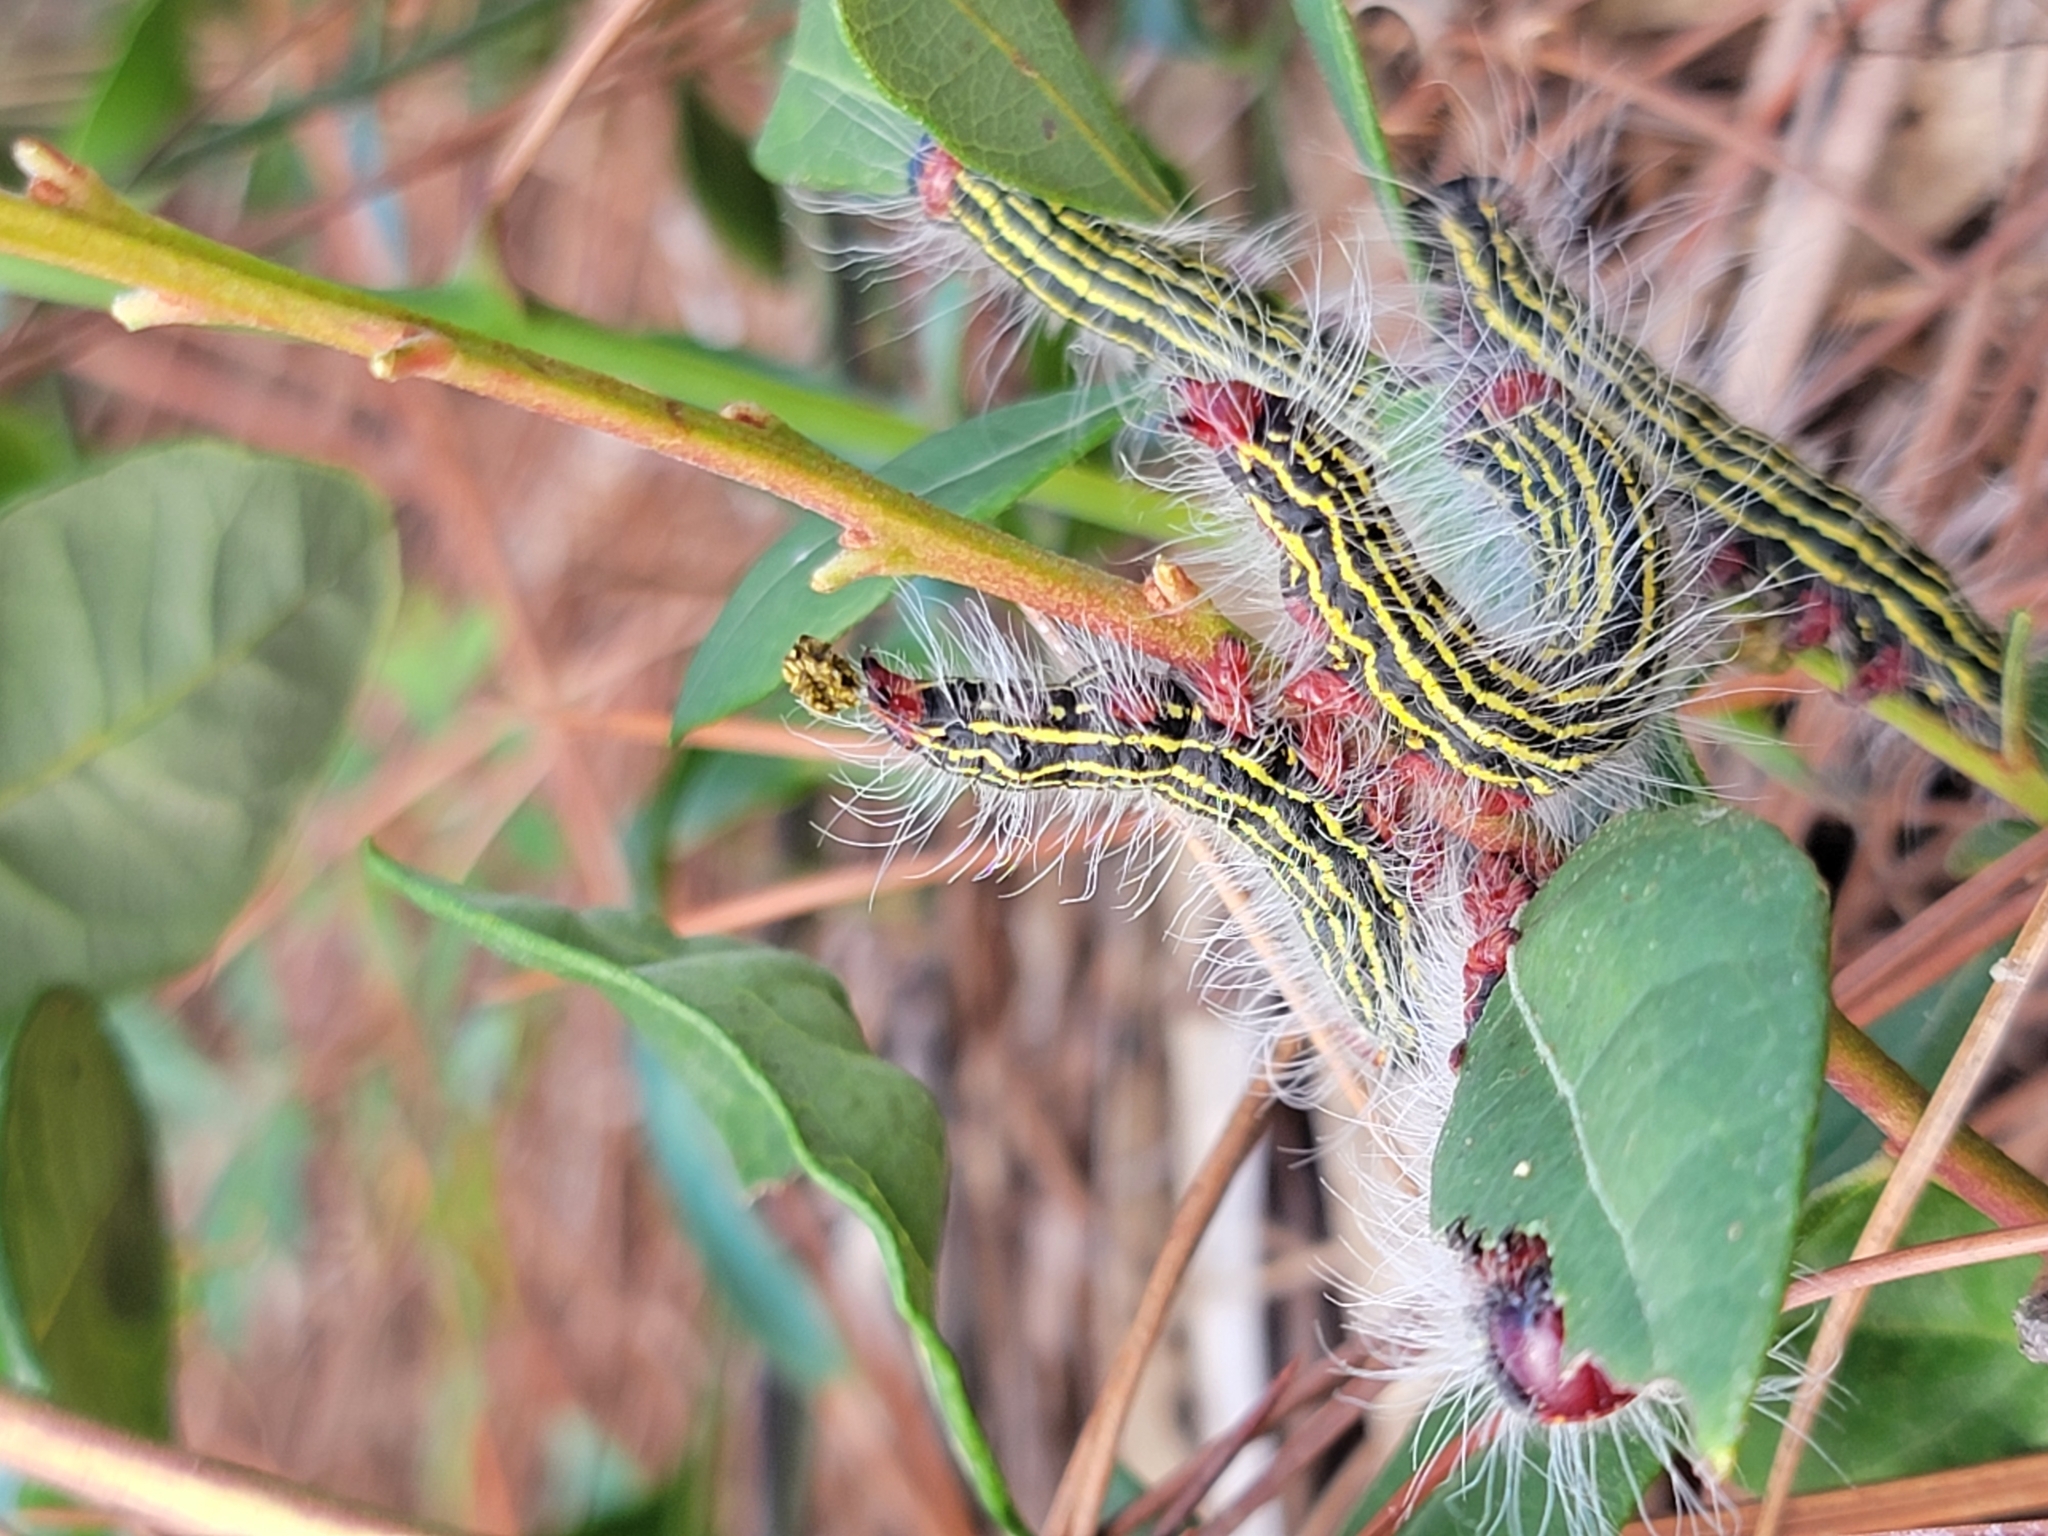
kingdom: Animalia
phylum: Arthropoda
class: Insecta
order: Lepidoptera
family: Notodontidae
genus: Datana
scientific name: Datana major
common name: Azalea caterpillar
